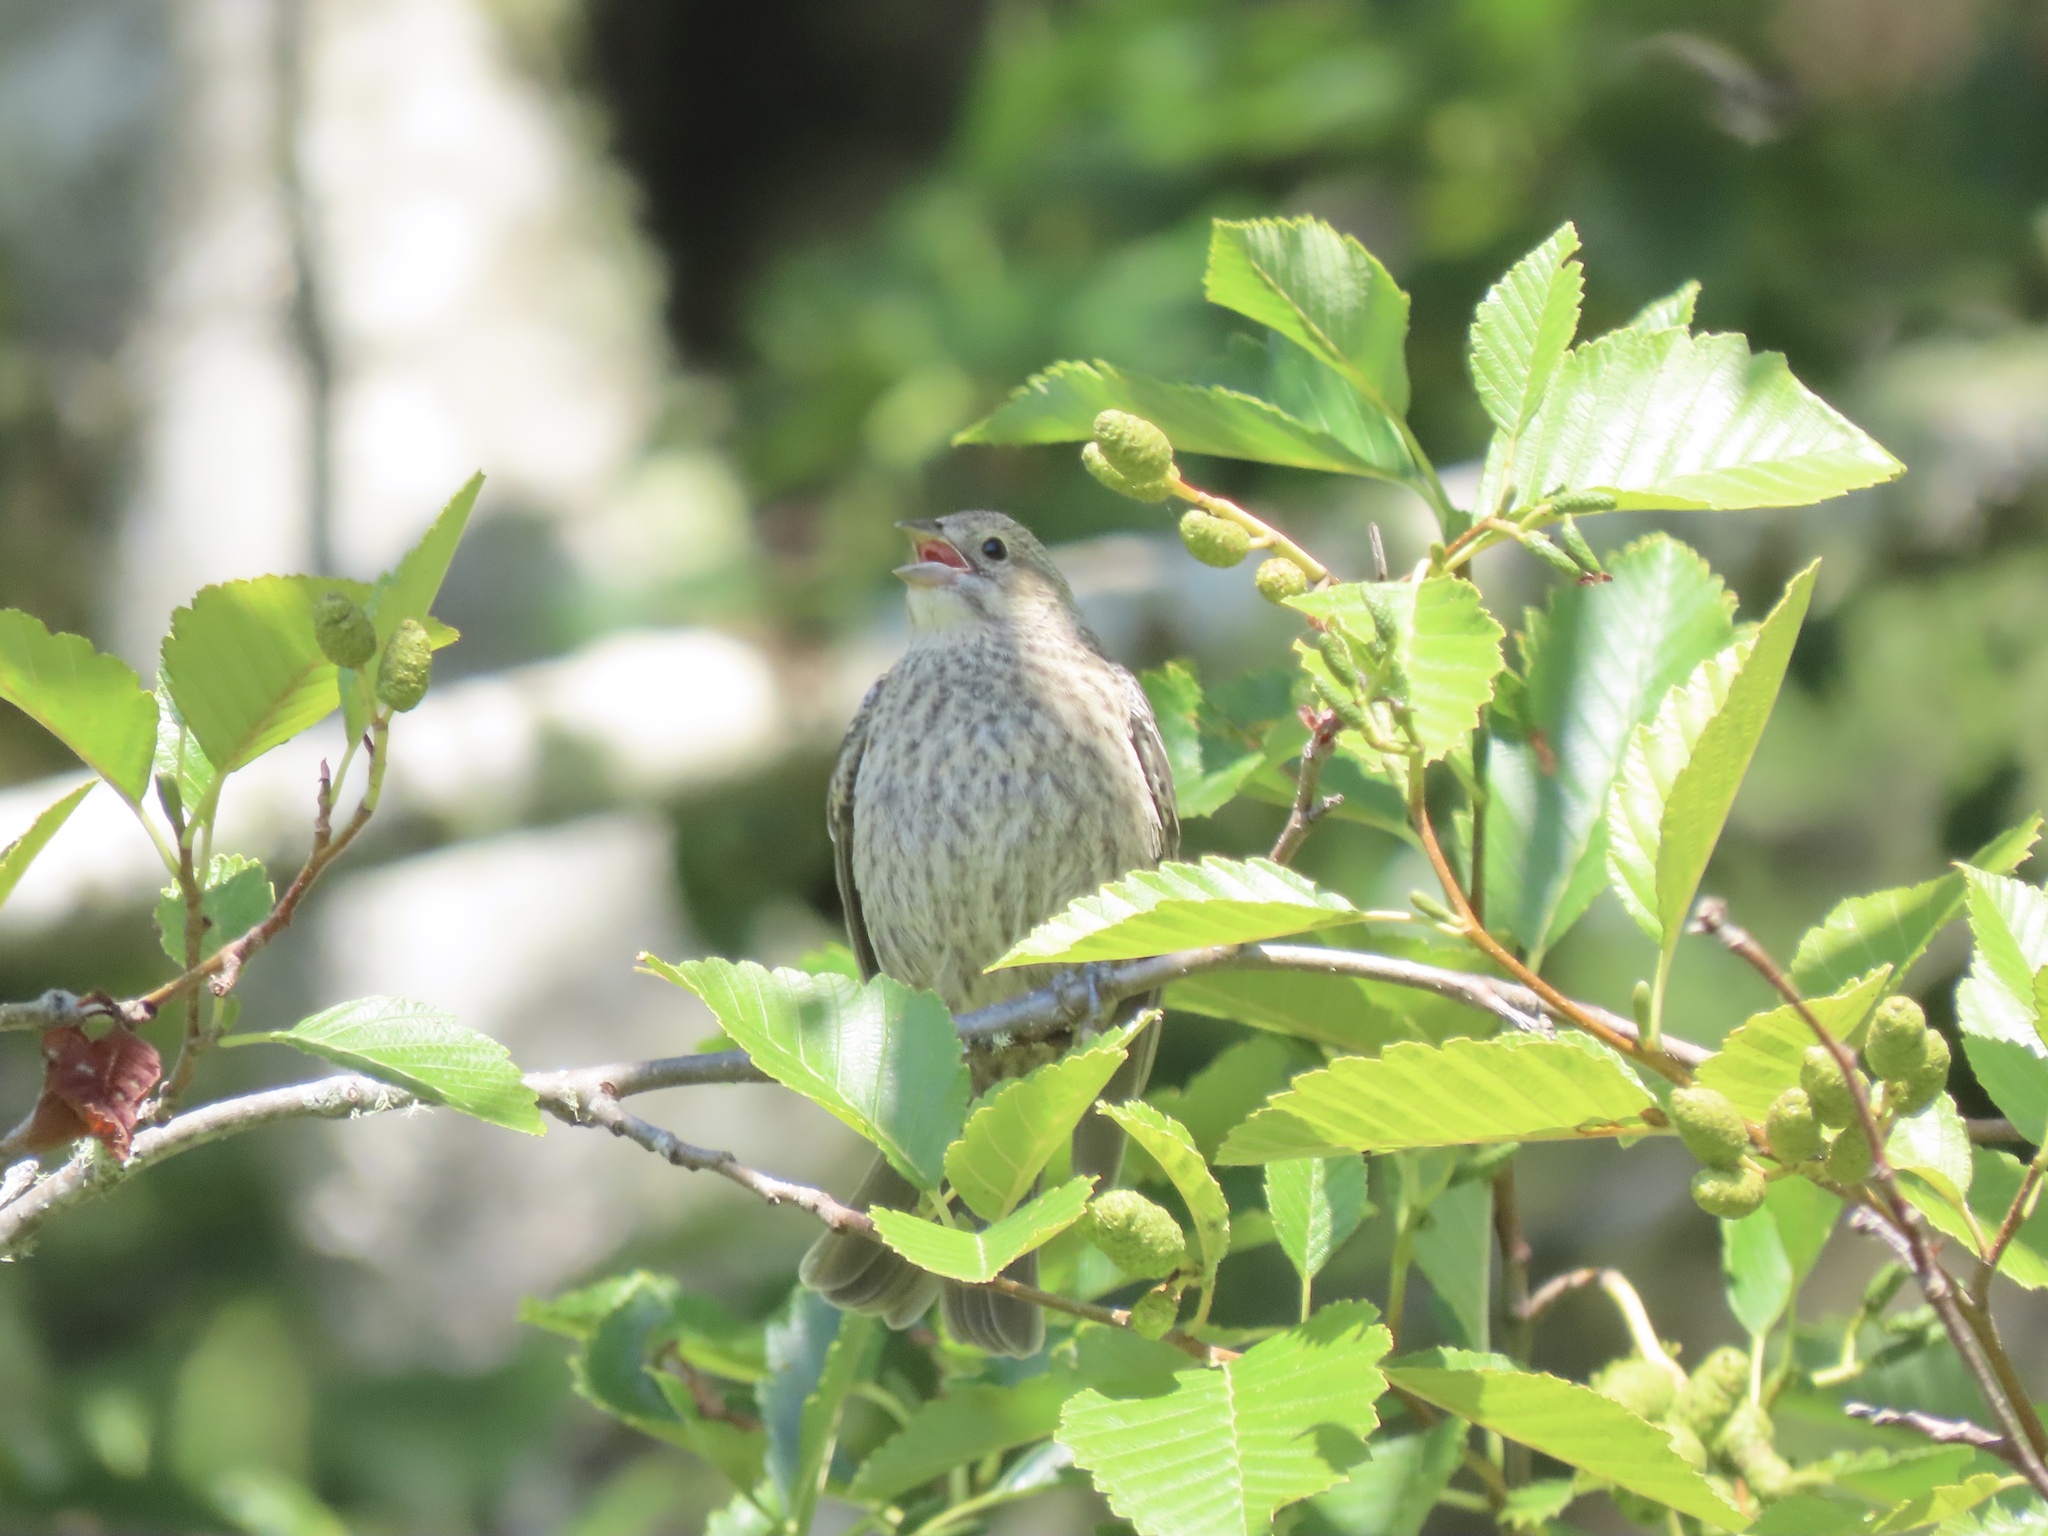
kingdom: Animalia
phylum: Chordata
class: Aves
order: Passeriformes
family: Icteridae
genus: Molothrus
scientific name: Molothrus ater
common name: Brown-headed cowbird
